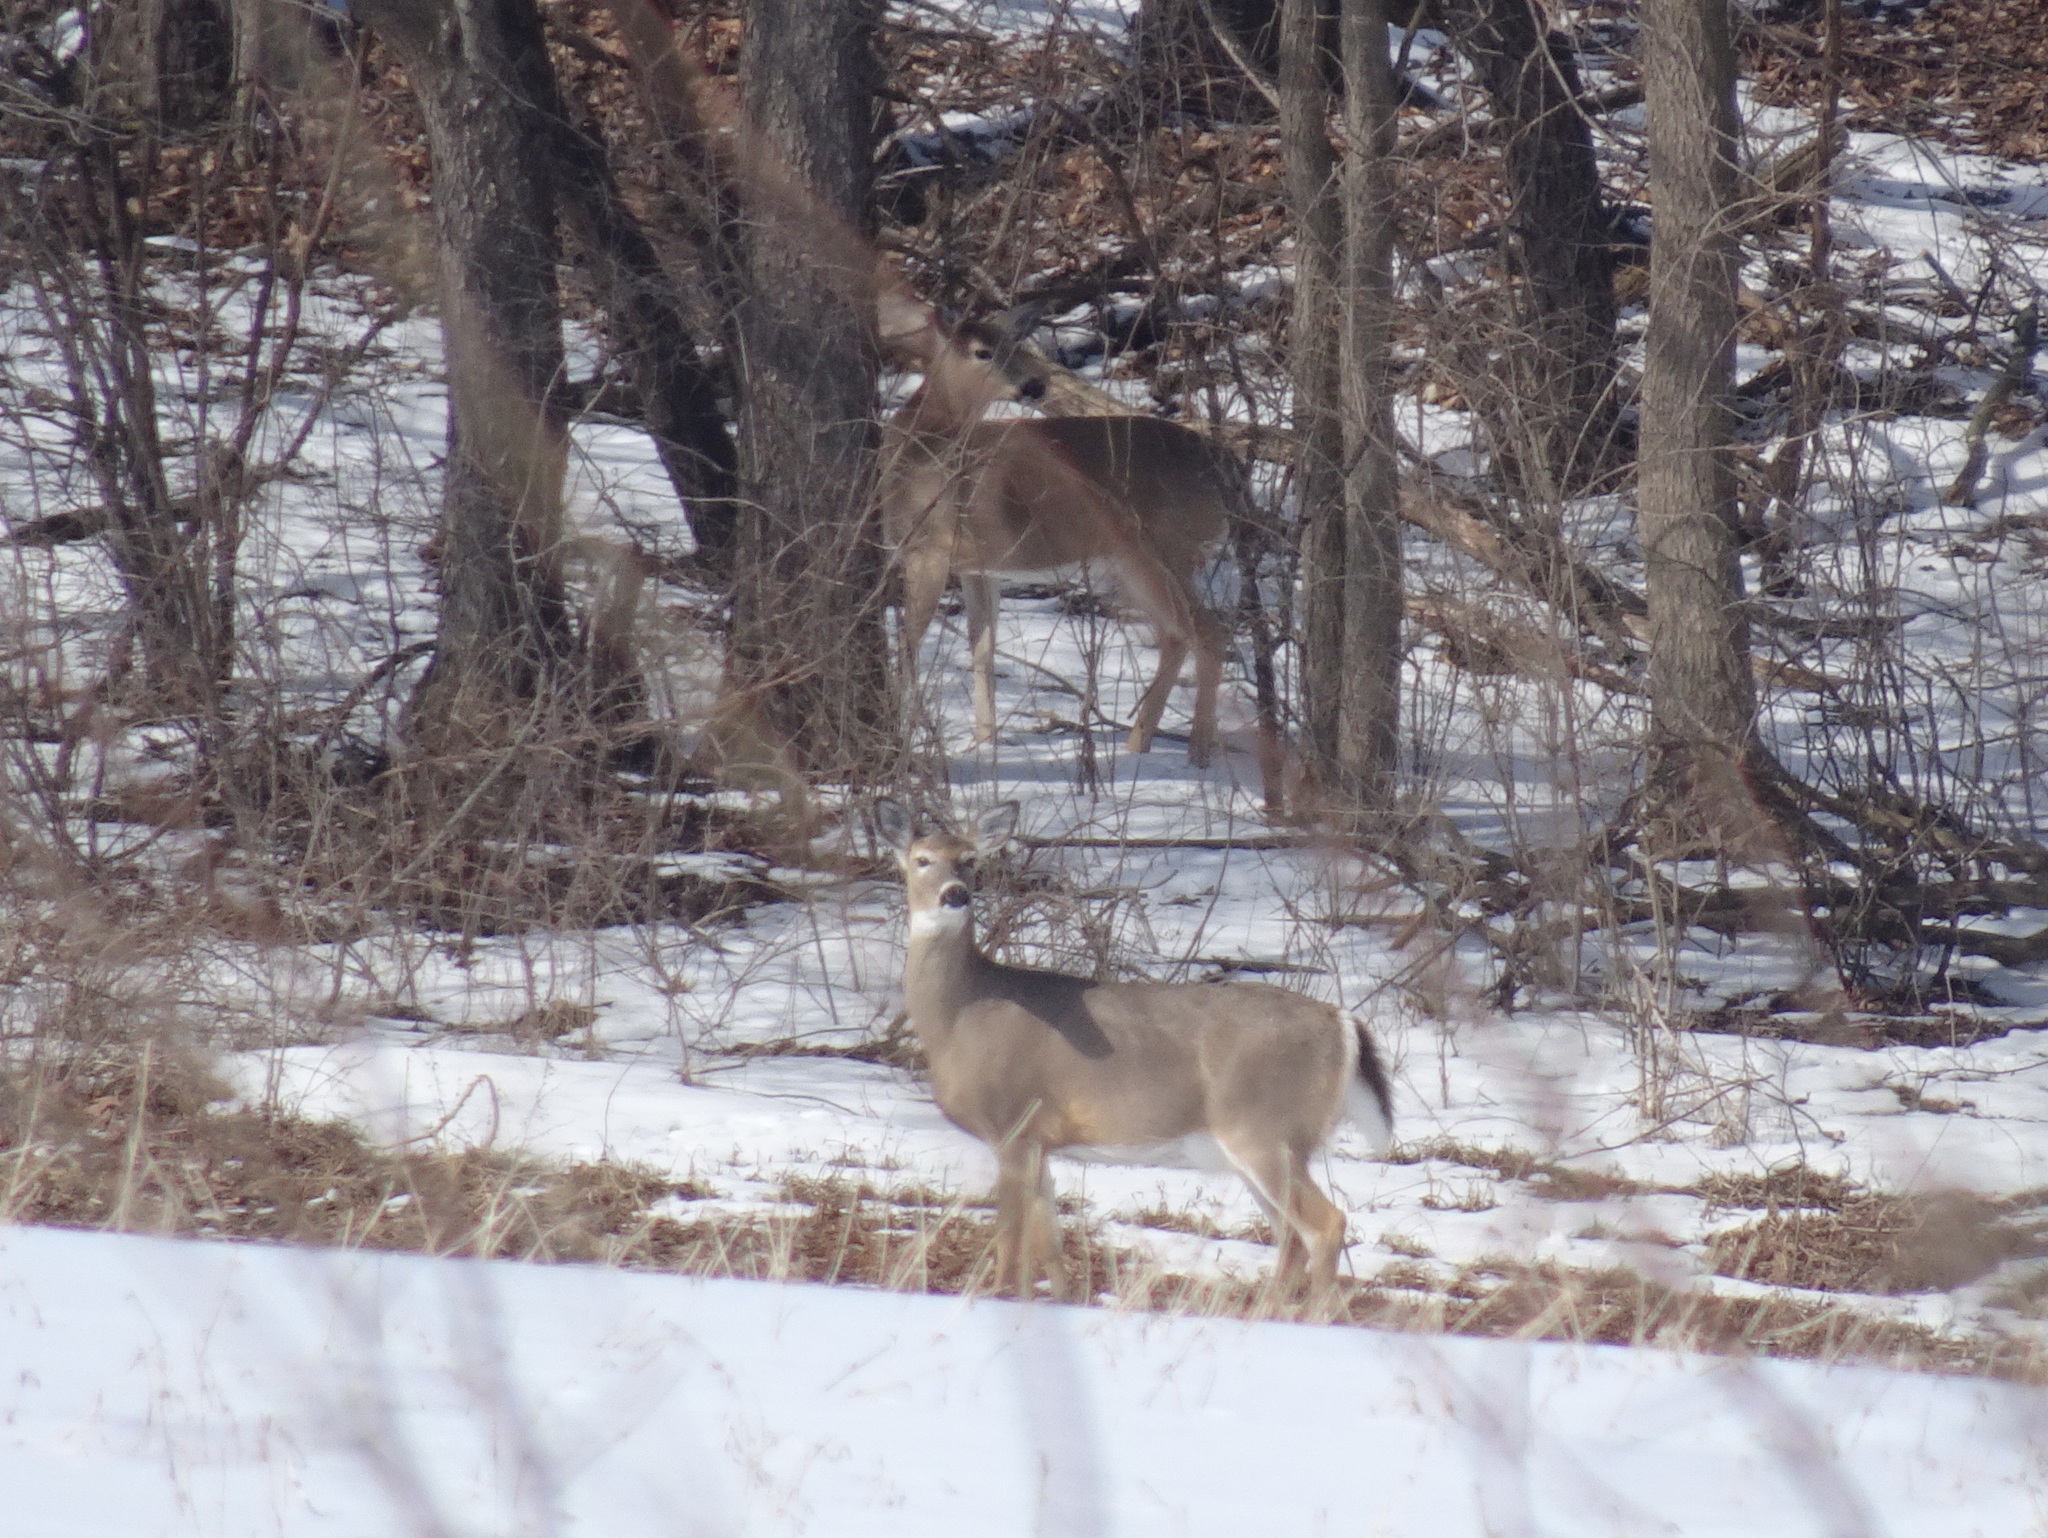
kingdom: Animalia
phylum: Chordata
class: Mammalia
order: Artiodactyla
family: Cervidae
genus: Odocoileus
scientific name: Odocoileus virginianus
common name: White-tailed deer
